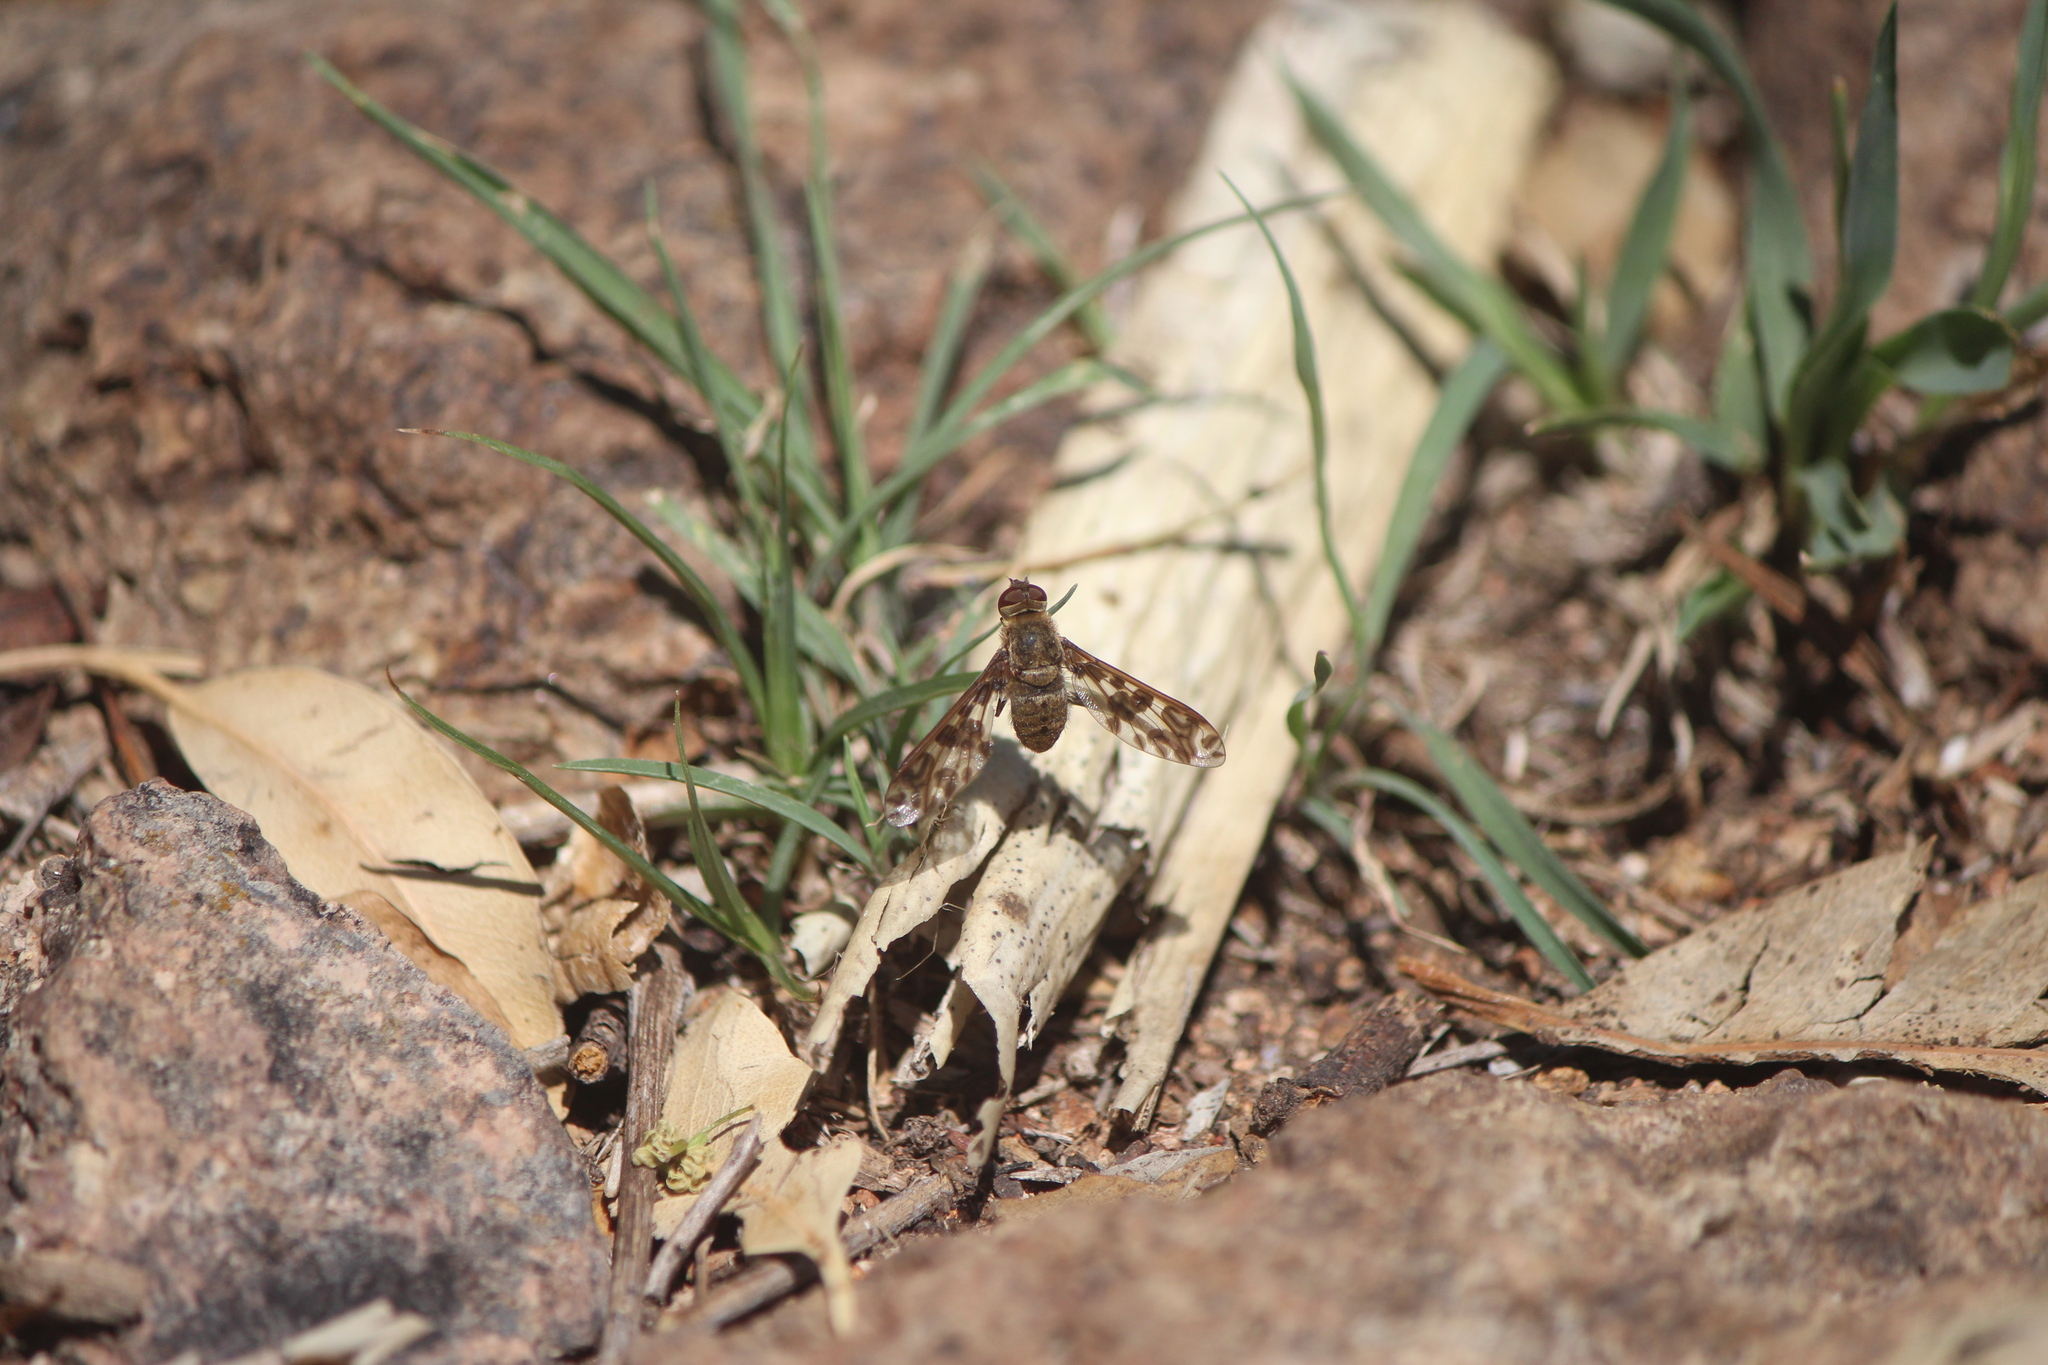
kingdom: Animalia
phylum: Arthropoda
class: Insecta
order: Diptera
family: Bombyliidae
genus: Dipalta
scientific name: Dipalta serpentina
